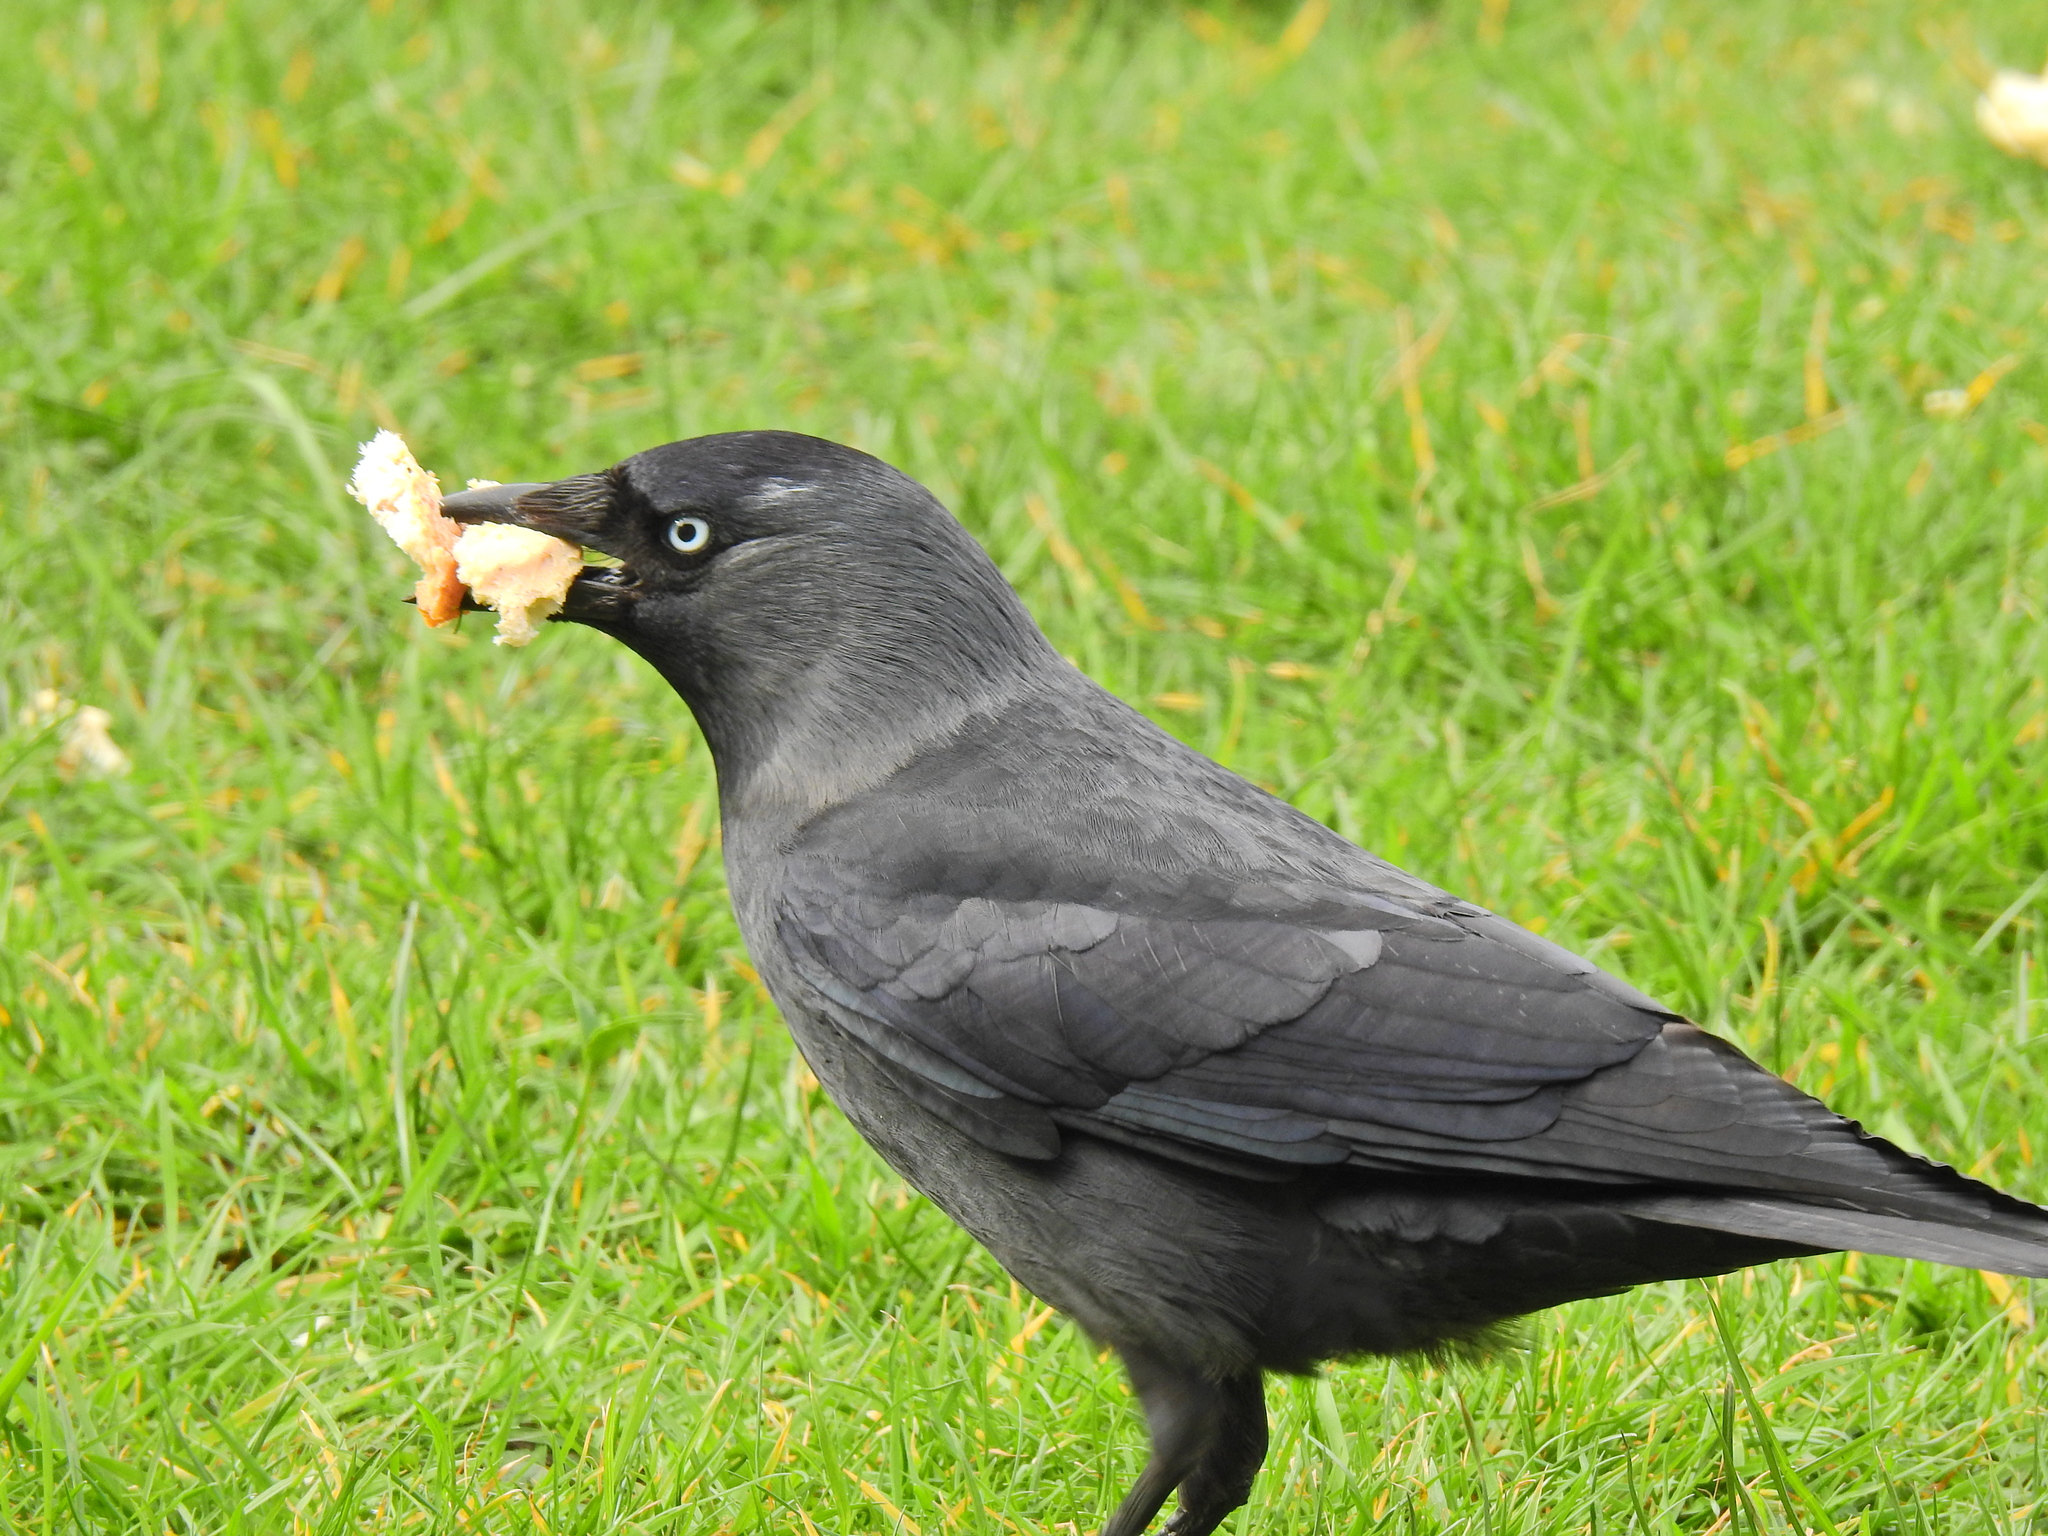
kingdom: Animalia
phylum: Chordata
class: Aves
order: Passeriformes
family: Corvidae
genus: Coloeus
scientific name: Coloeus monedula
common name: Western jackdaw
